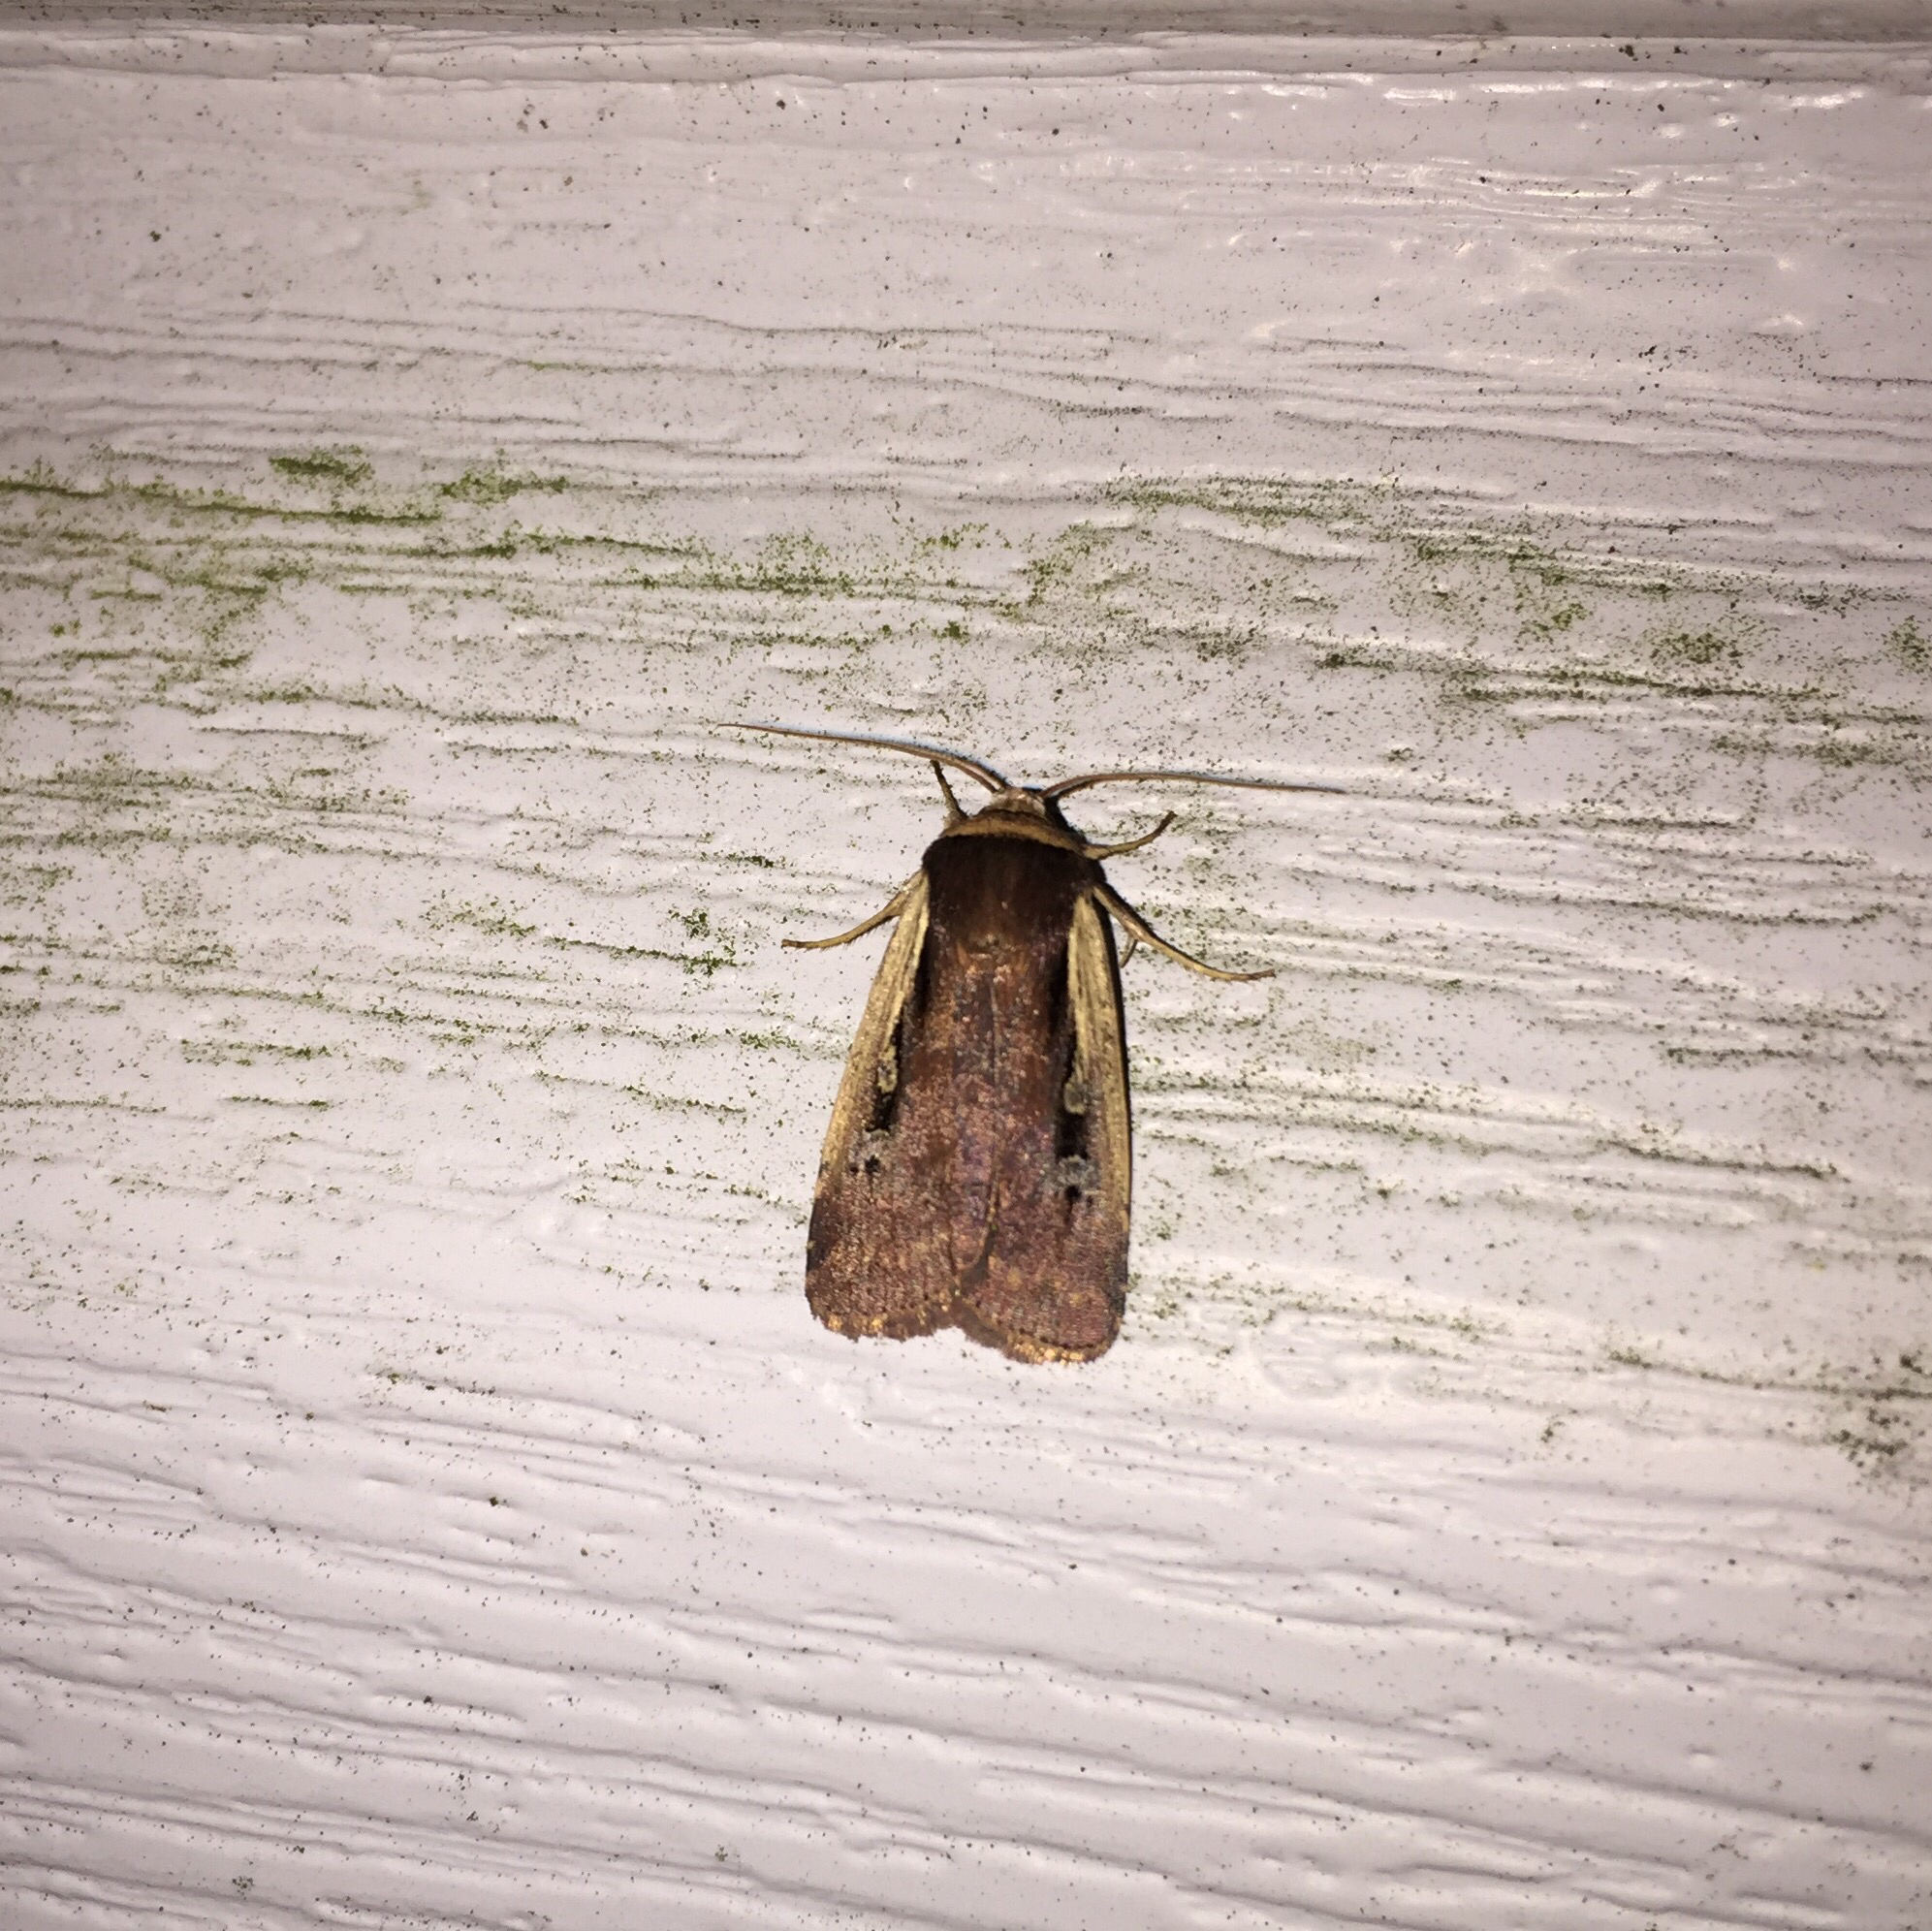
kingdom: Animalia
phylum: Arthropoda
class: Insecta
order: Lepidoptera
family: Noctuidae
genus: Ochropleura
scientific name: Ochropleura implecta
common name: Flame-shouldered dart
